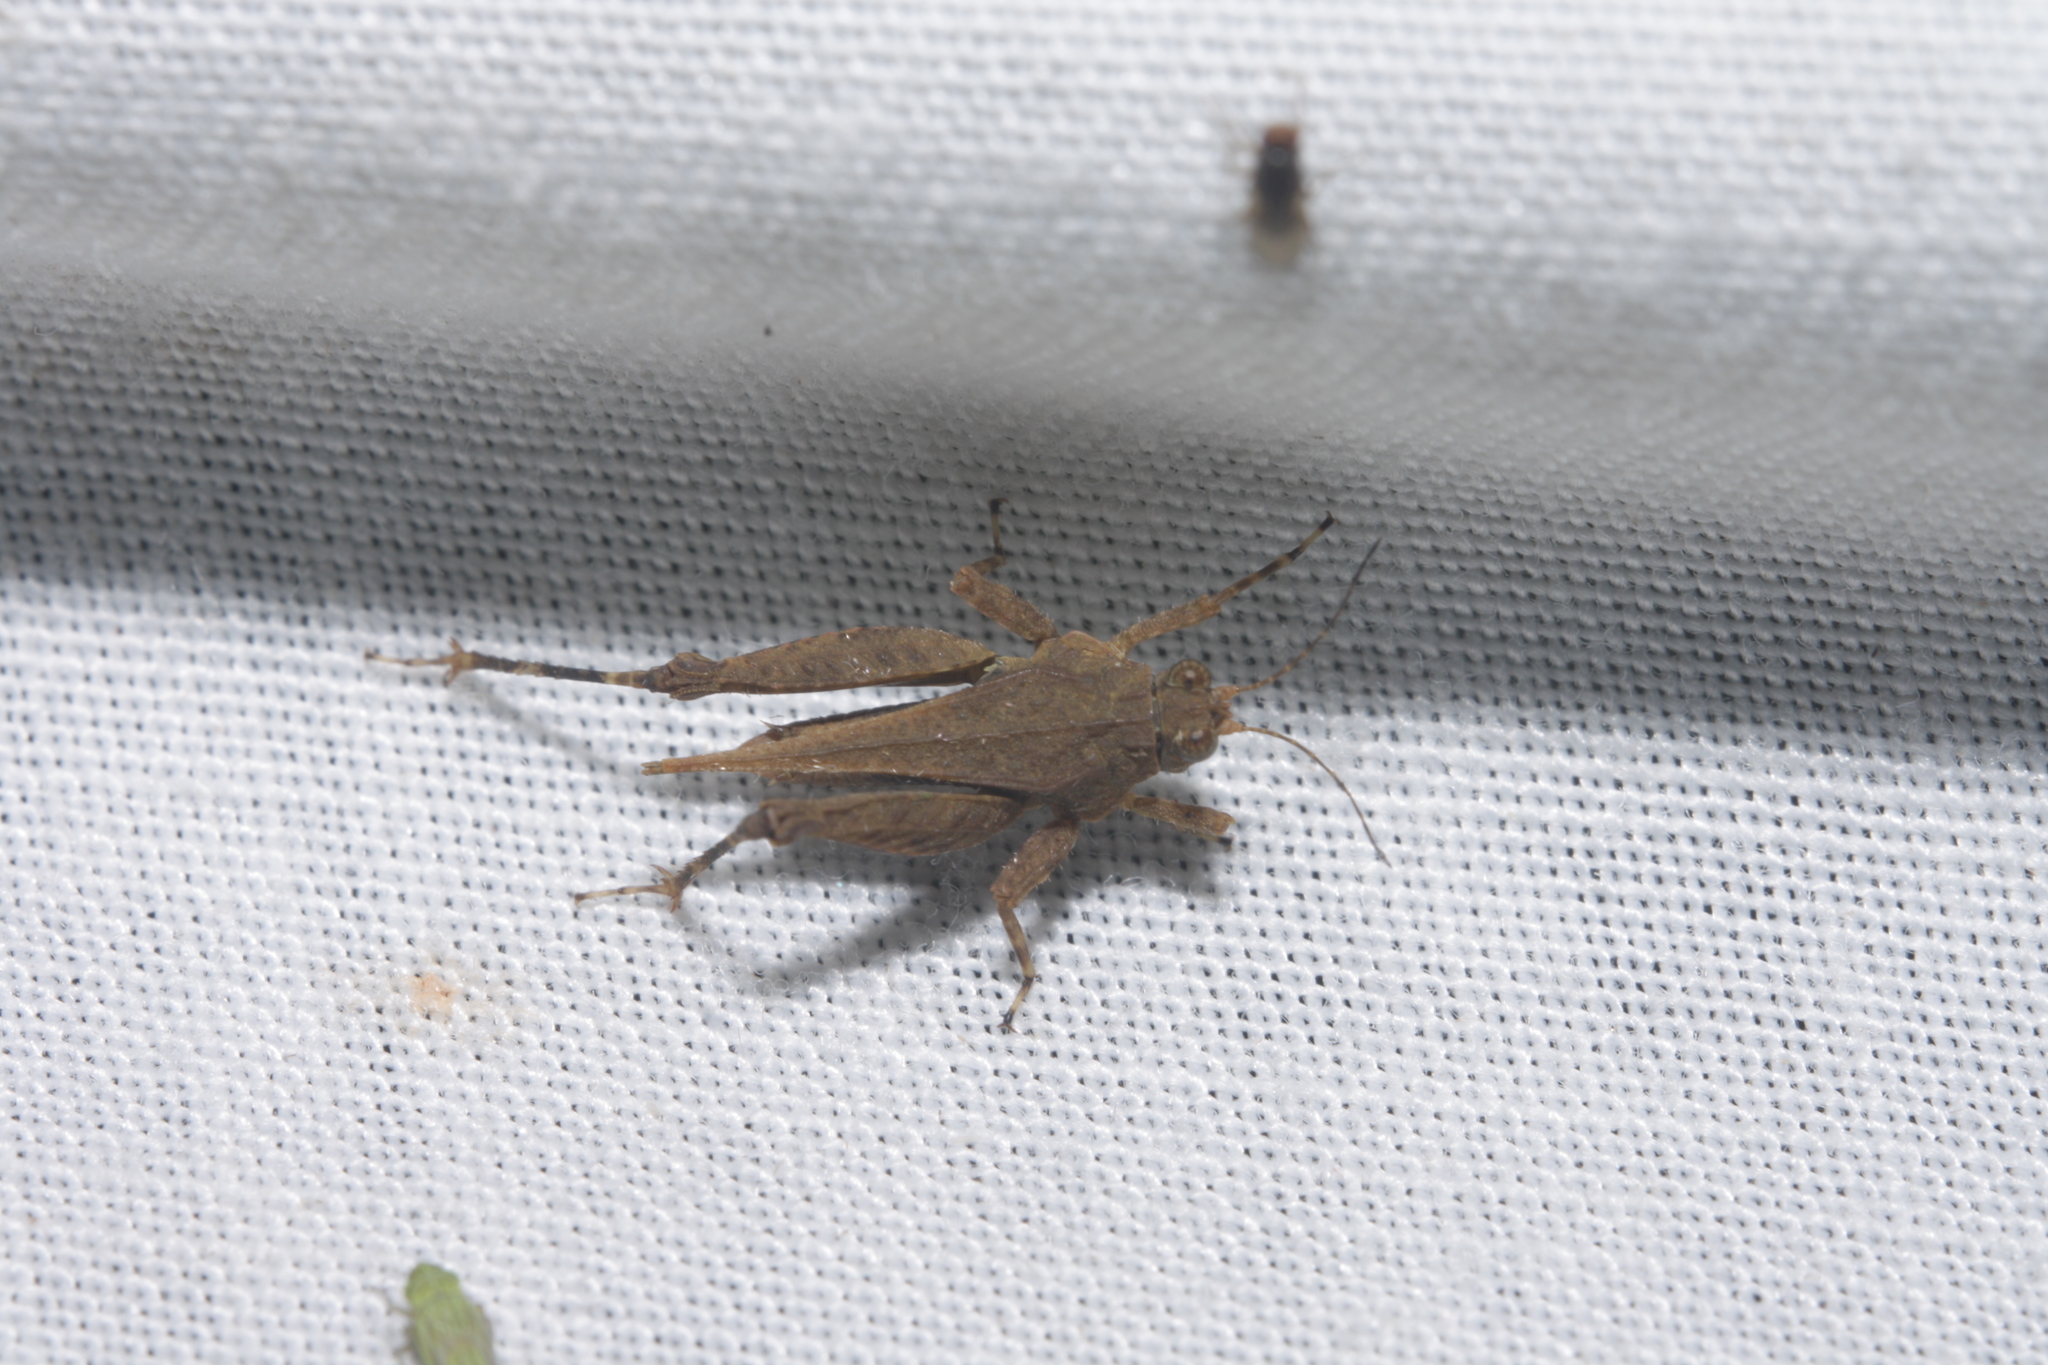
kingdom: Animalia
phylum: Arthropoda
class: Insecta
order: Orthoptera
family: Tetrigidae
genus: Crimisus
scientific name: Crimisus costaricensis
